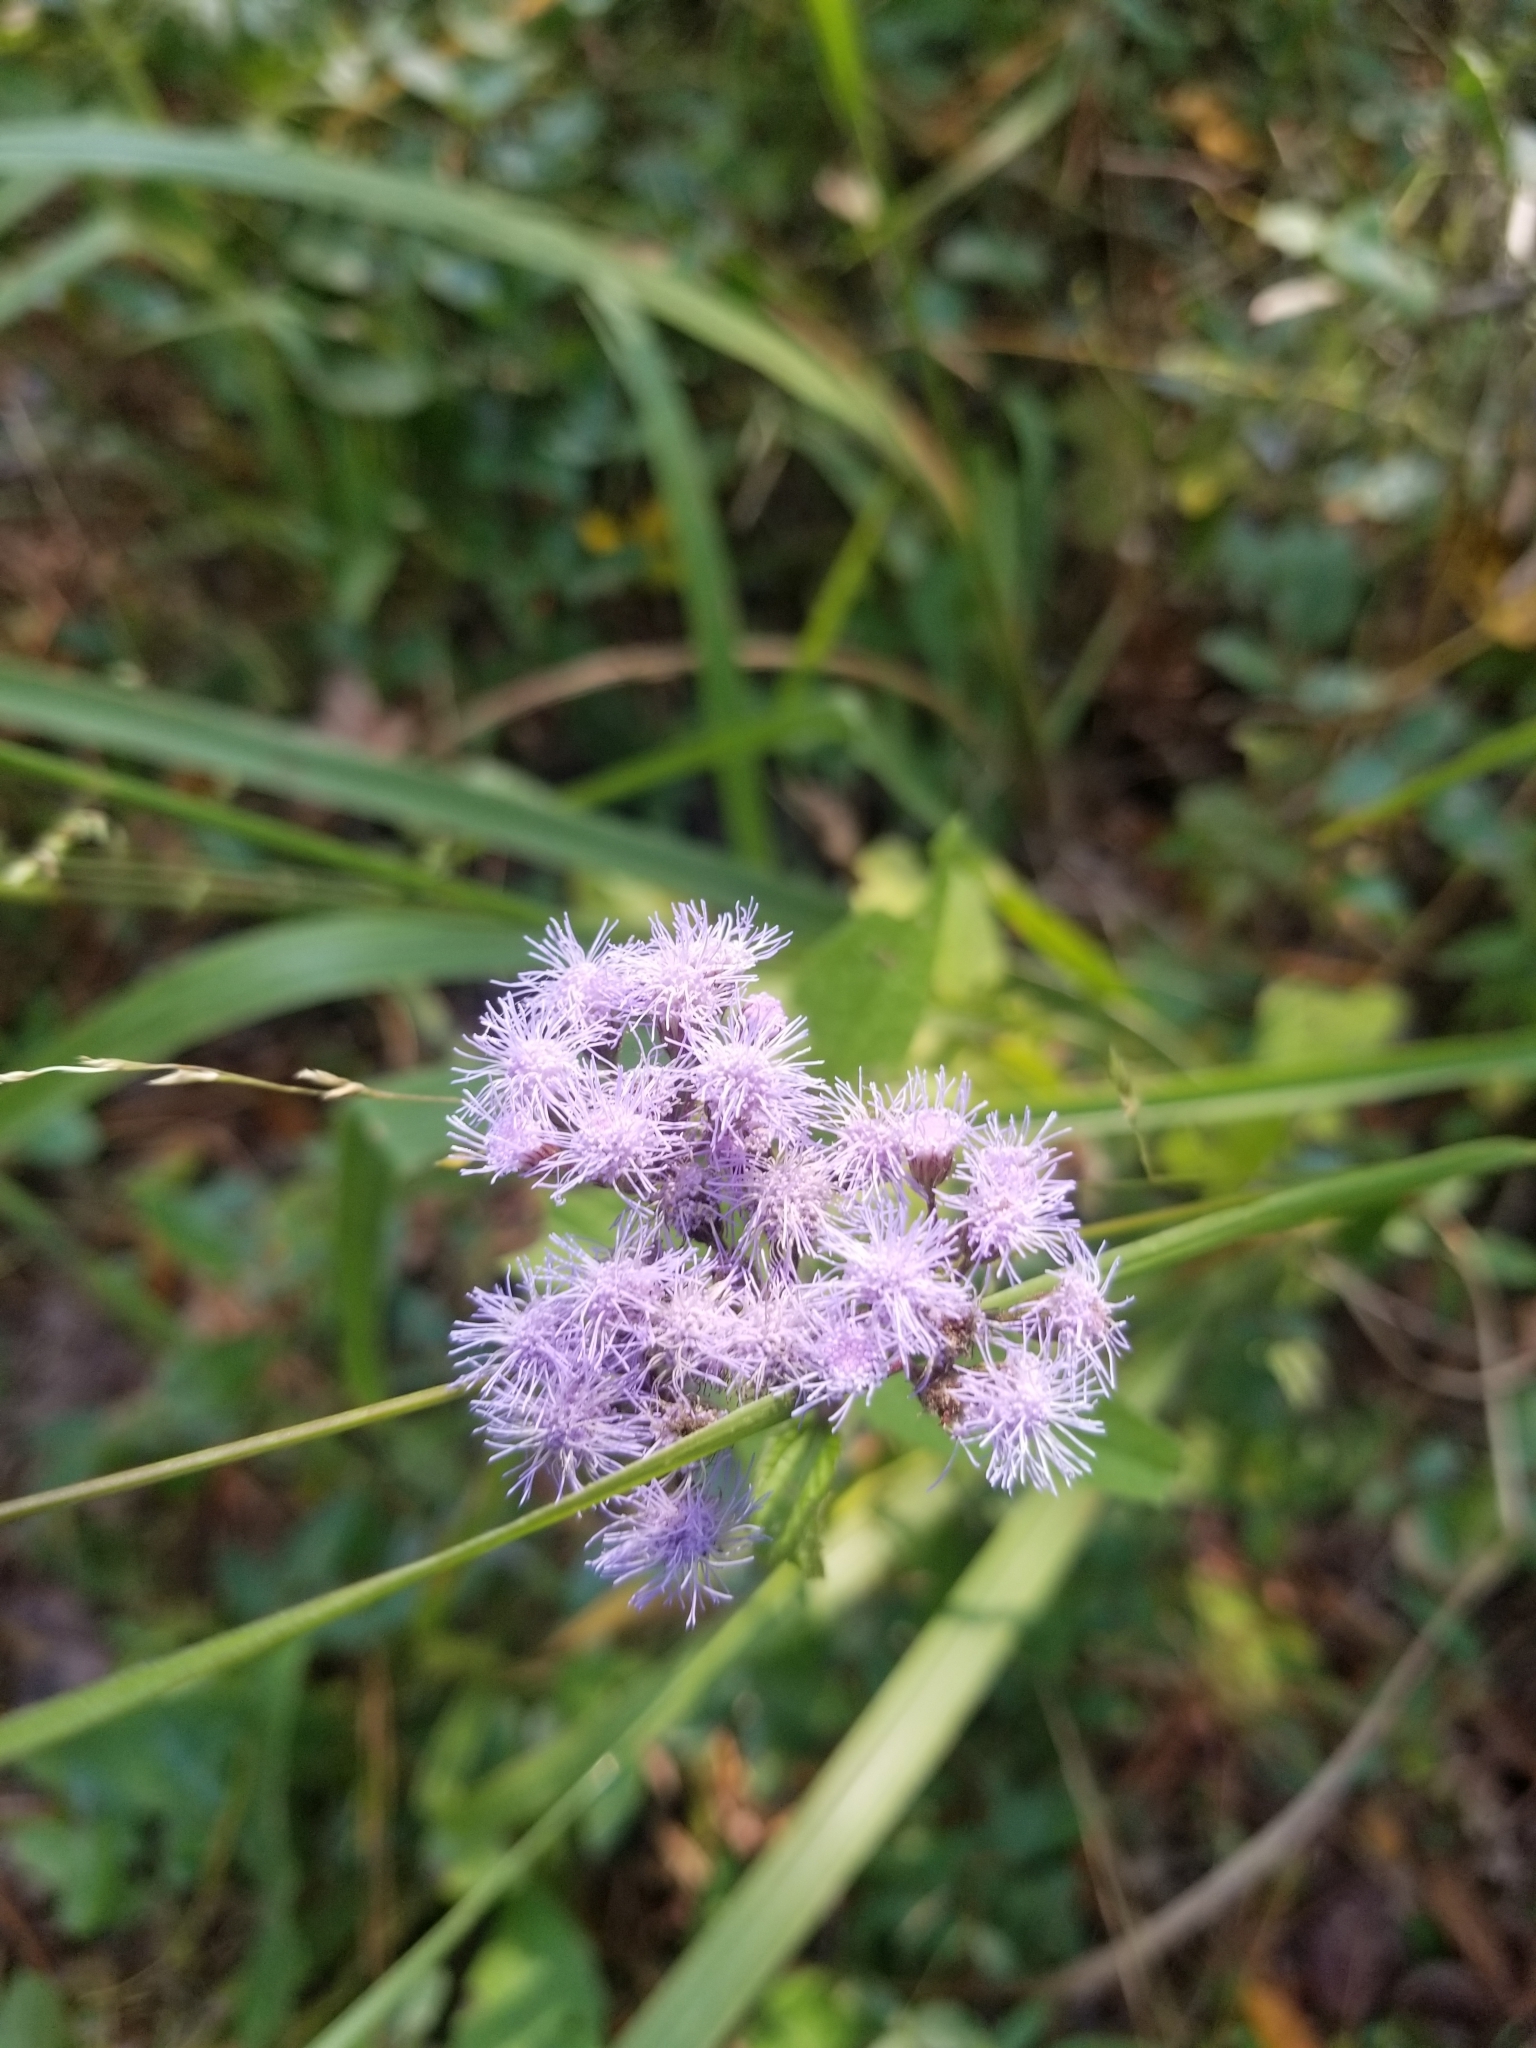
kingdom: Plantae
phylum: Tracheophyta
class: Magnoliopsida
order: Asterales
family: Asteraceae
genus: Conoclinium
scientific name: Conoclinium coelestinum
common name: Blue mistflower
